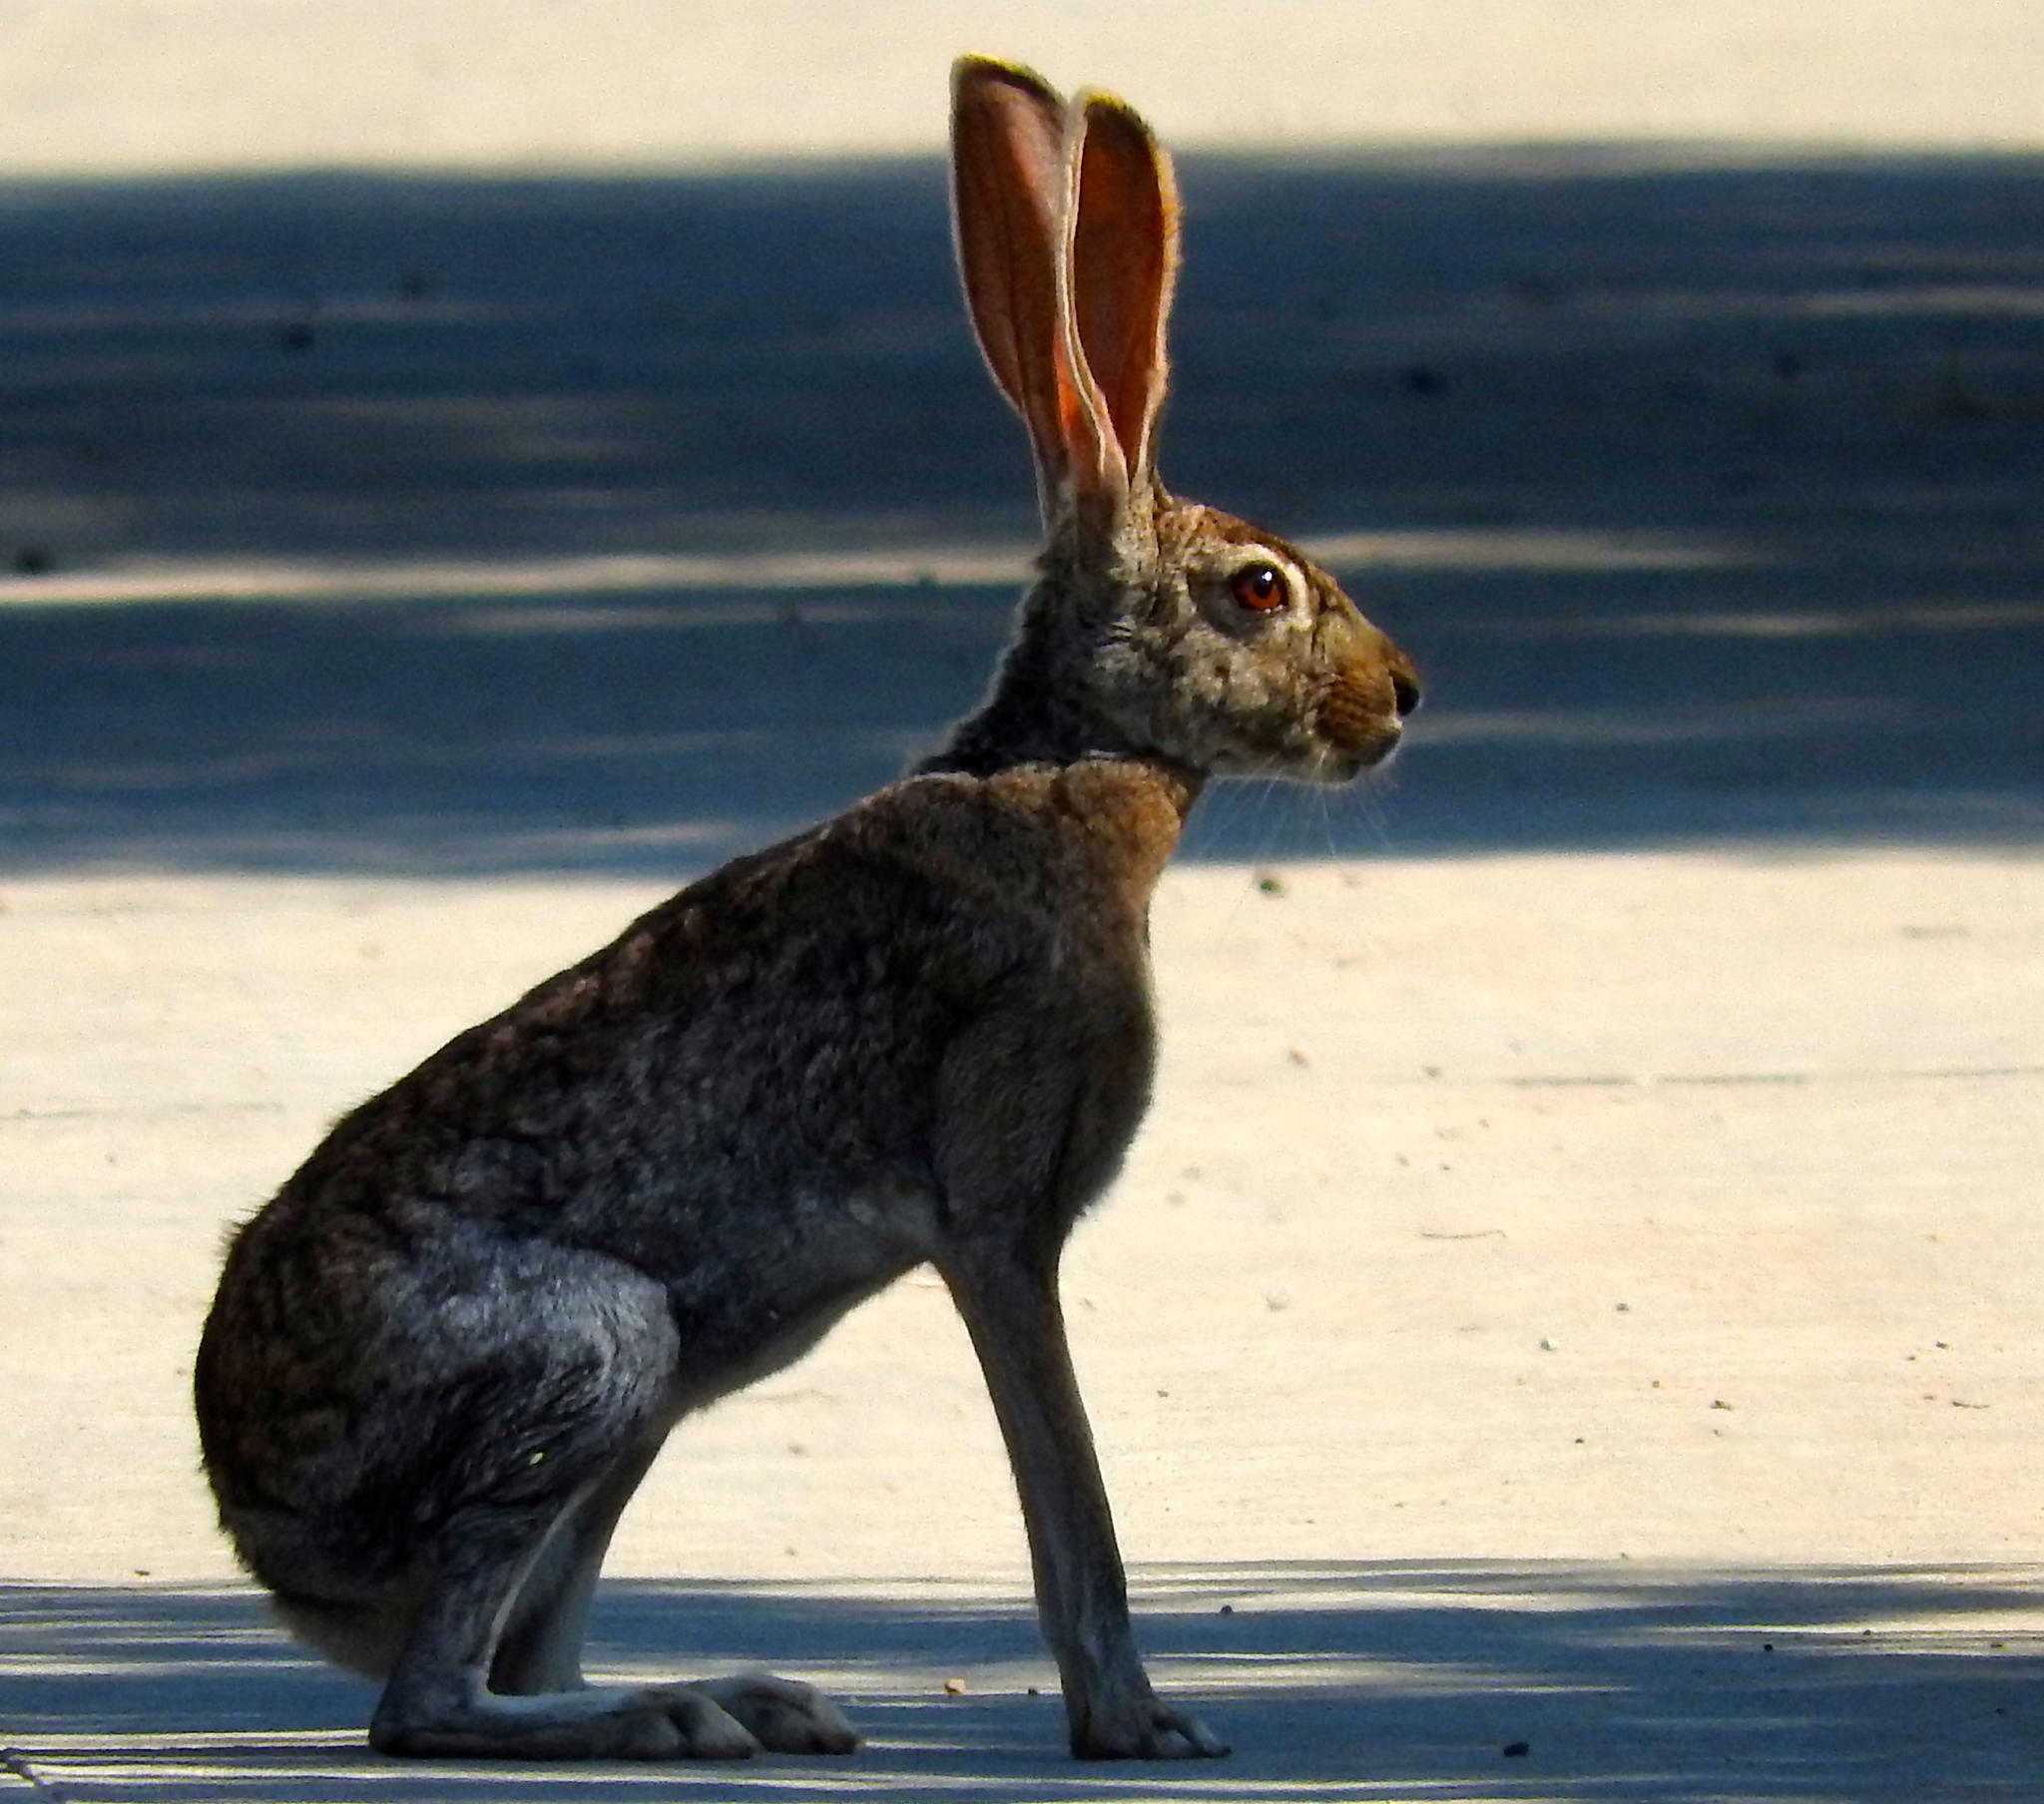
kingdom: Animalia
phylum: Chordata
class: Mammalia
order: Lagomorpha
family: Leporidae
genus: Lepus
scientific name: Lepus alleni
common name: Antelope jackrabbit
